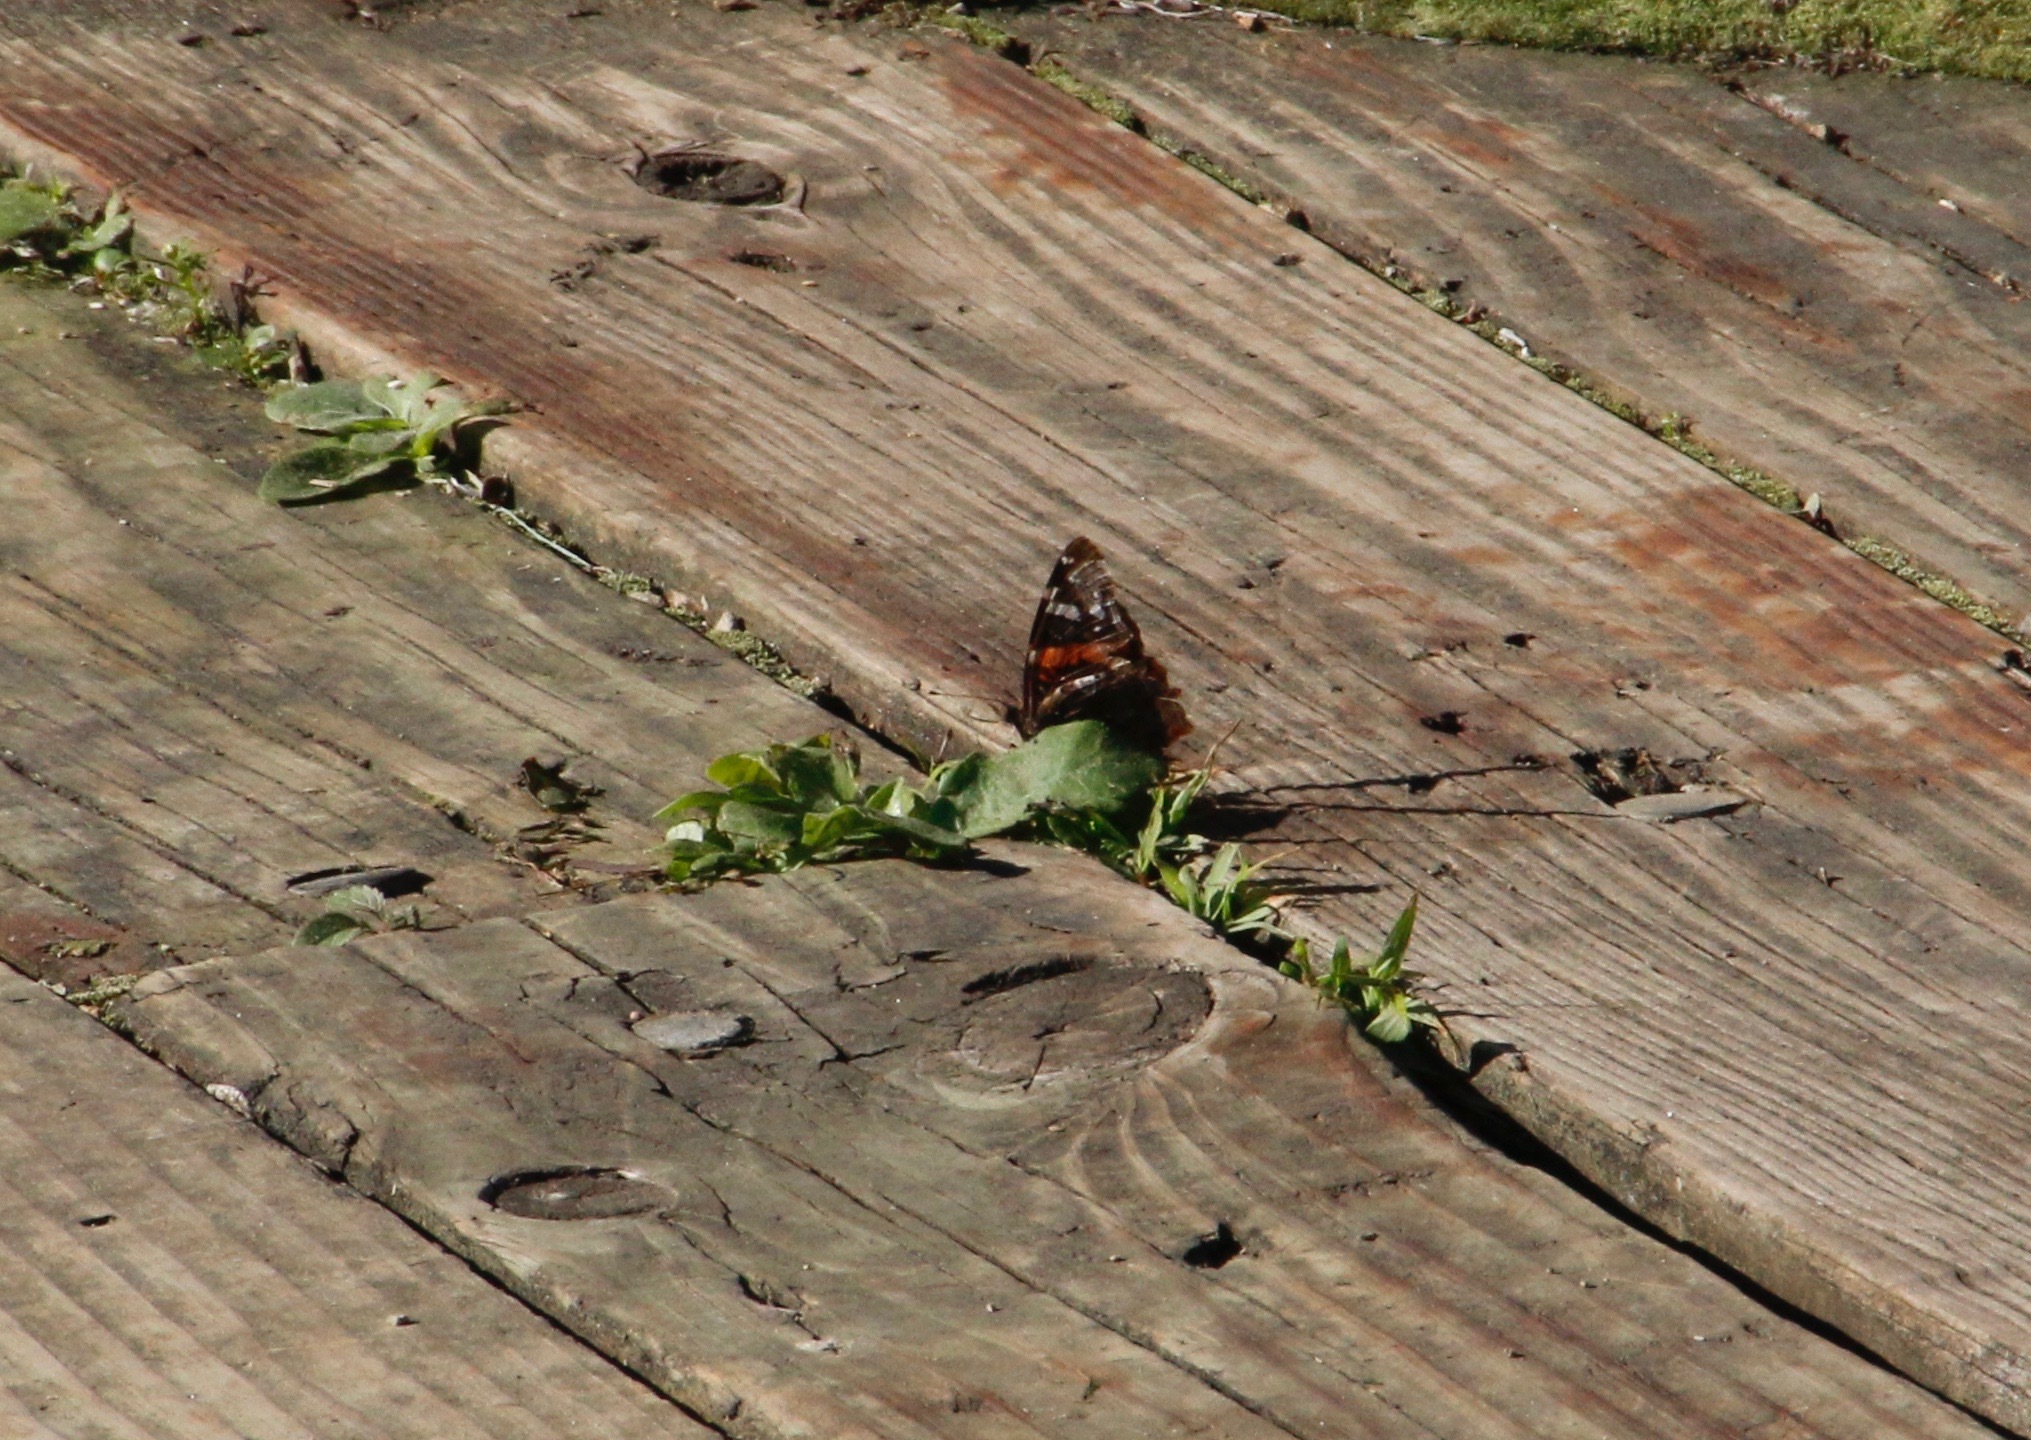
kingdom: Animalia
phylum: Arthropoda
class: Insecta
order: Lepidoptera
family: Nymphalidae
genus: Vanessa
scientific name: Vanessa atalanta
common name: Red admiral
